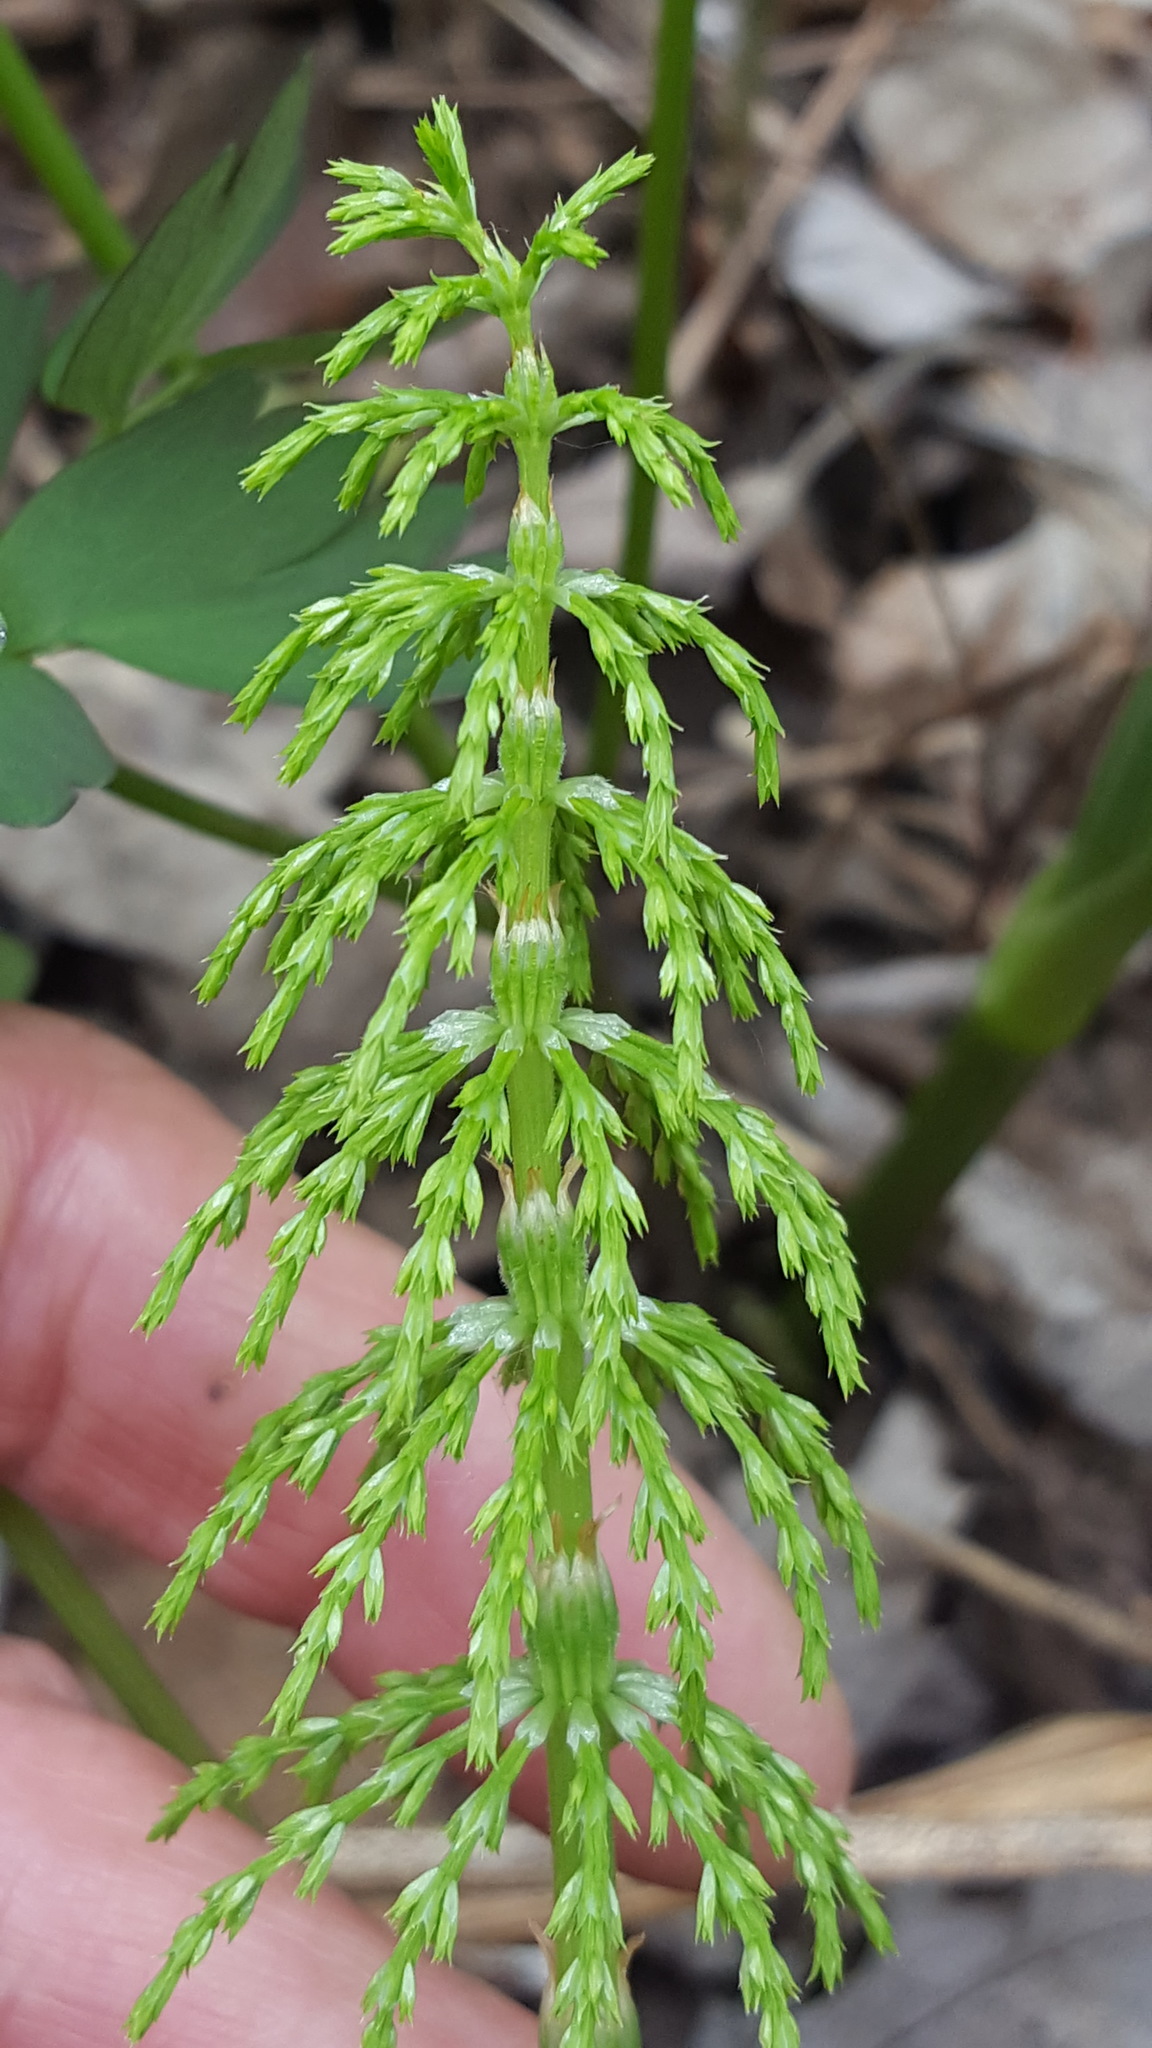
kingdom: Plantae
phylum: Tracheophyta
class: Polypodiopsida
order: Equisetales
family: Equisetaceae
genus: Equisetum
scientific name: Equisetum sylvaticum
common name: Wood horsetail
